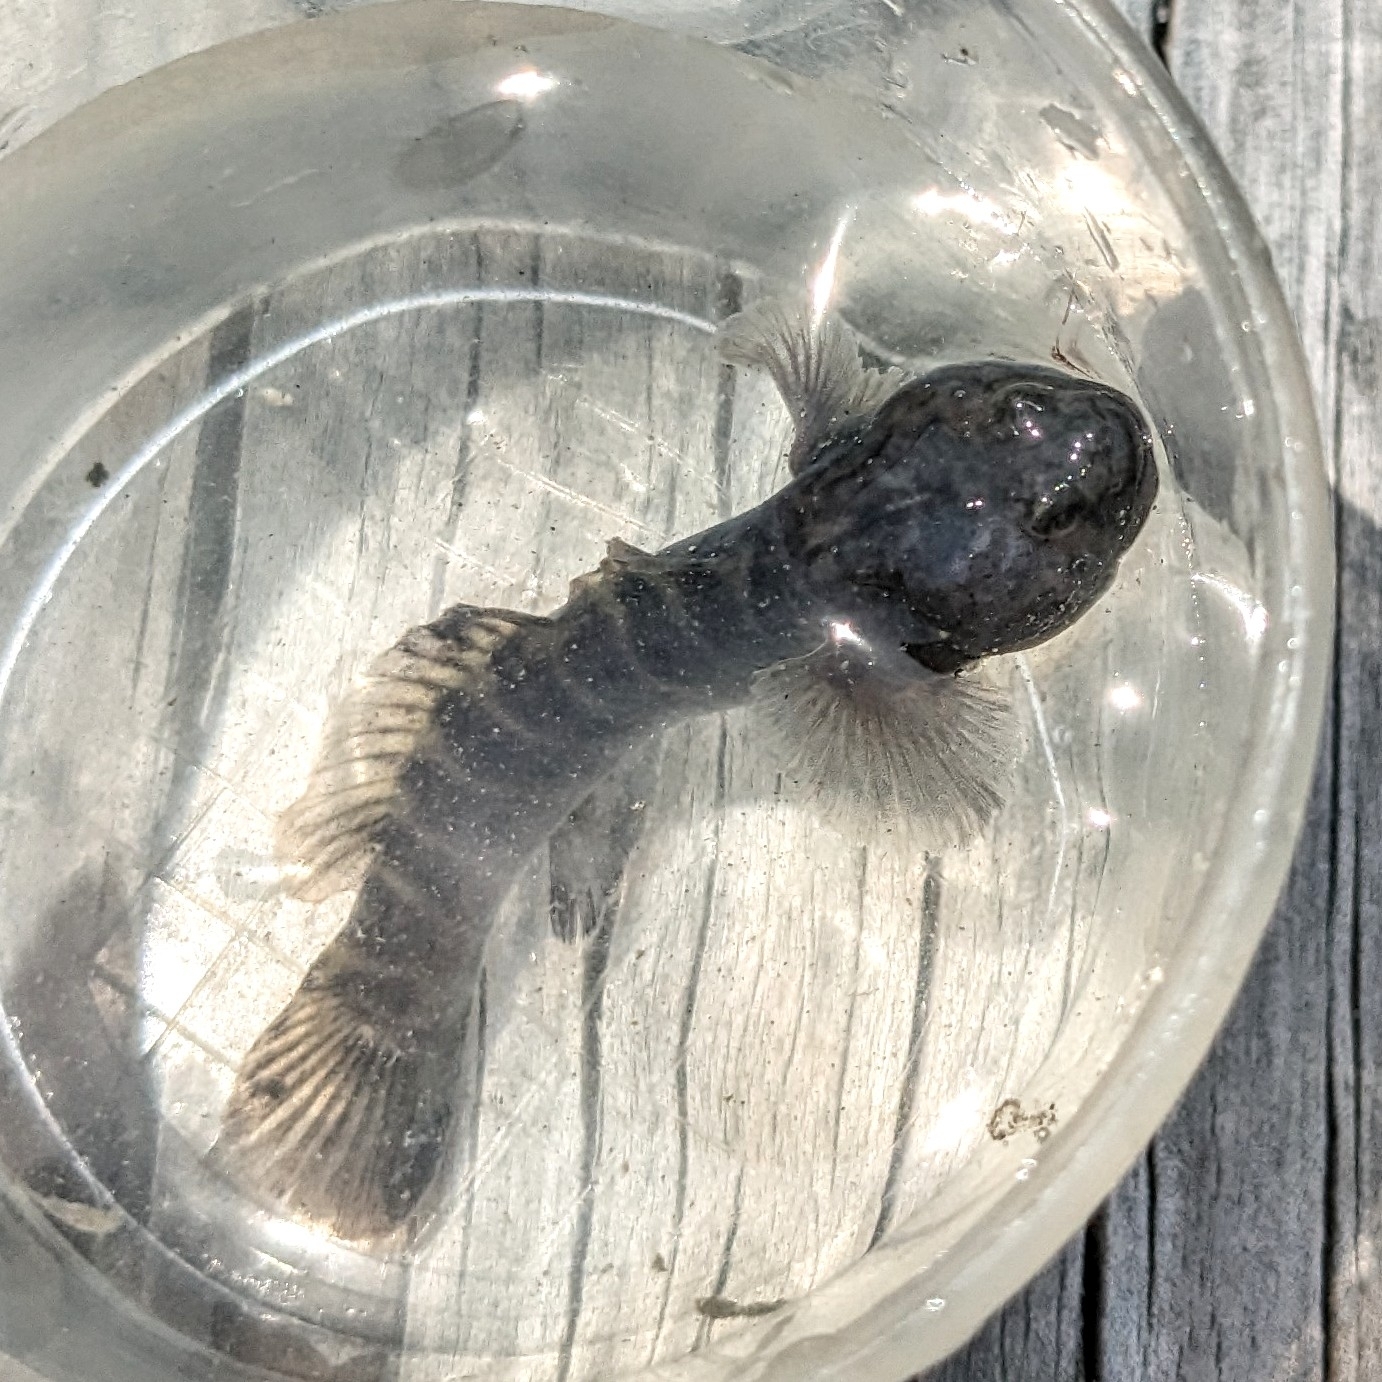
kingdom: Animalia
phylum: Chordata
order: Perciformes
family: Gobiidae
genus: Gobiosoma
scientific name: Gobiosoma bosc
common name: Naked goby
